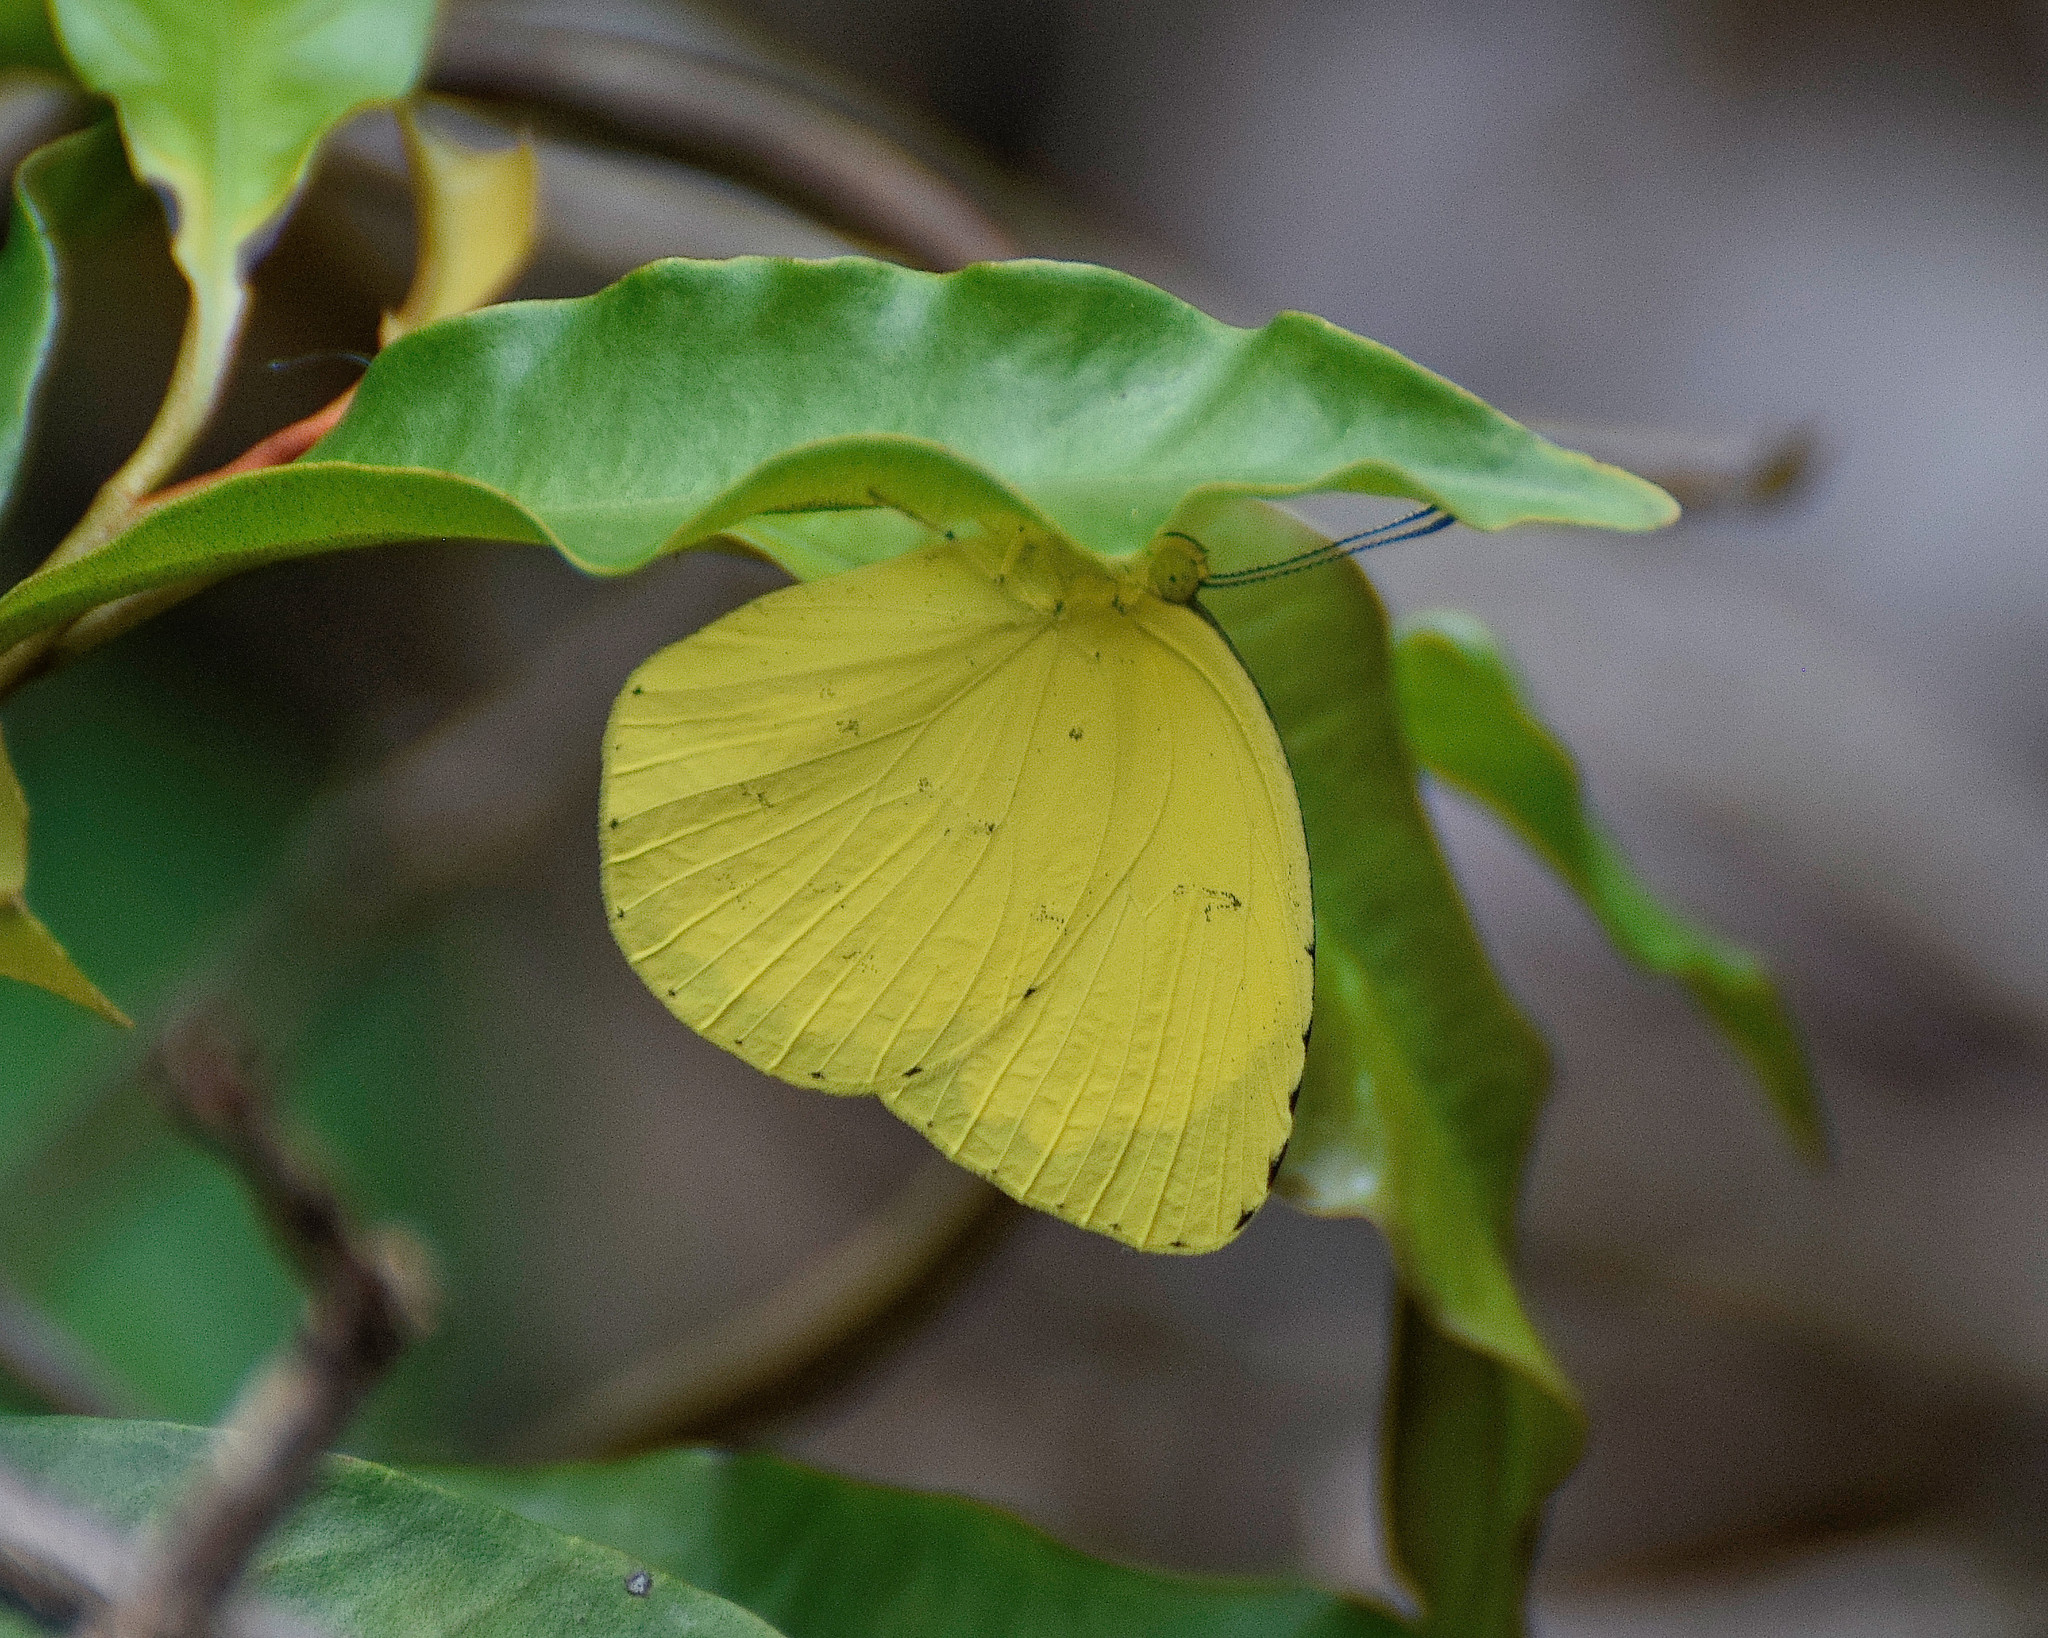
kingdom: Animalia
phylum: Arthropoda
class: Insecta
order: Lepidoptera
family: Pieridae
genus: Eurema
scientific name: Eurema hecabe
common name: Pale grass yellow
